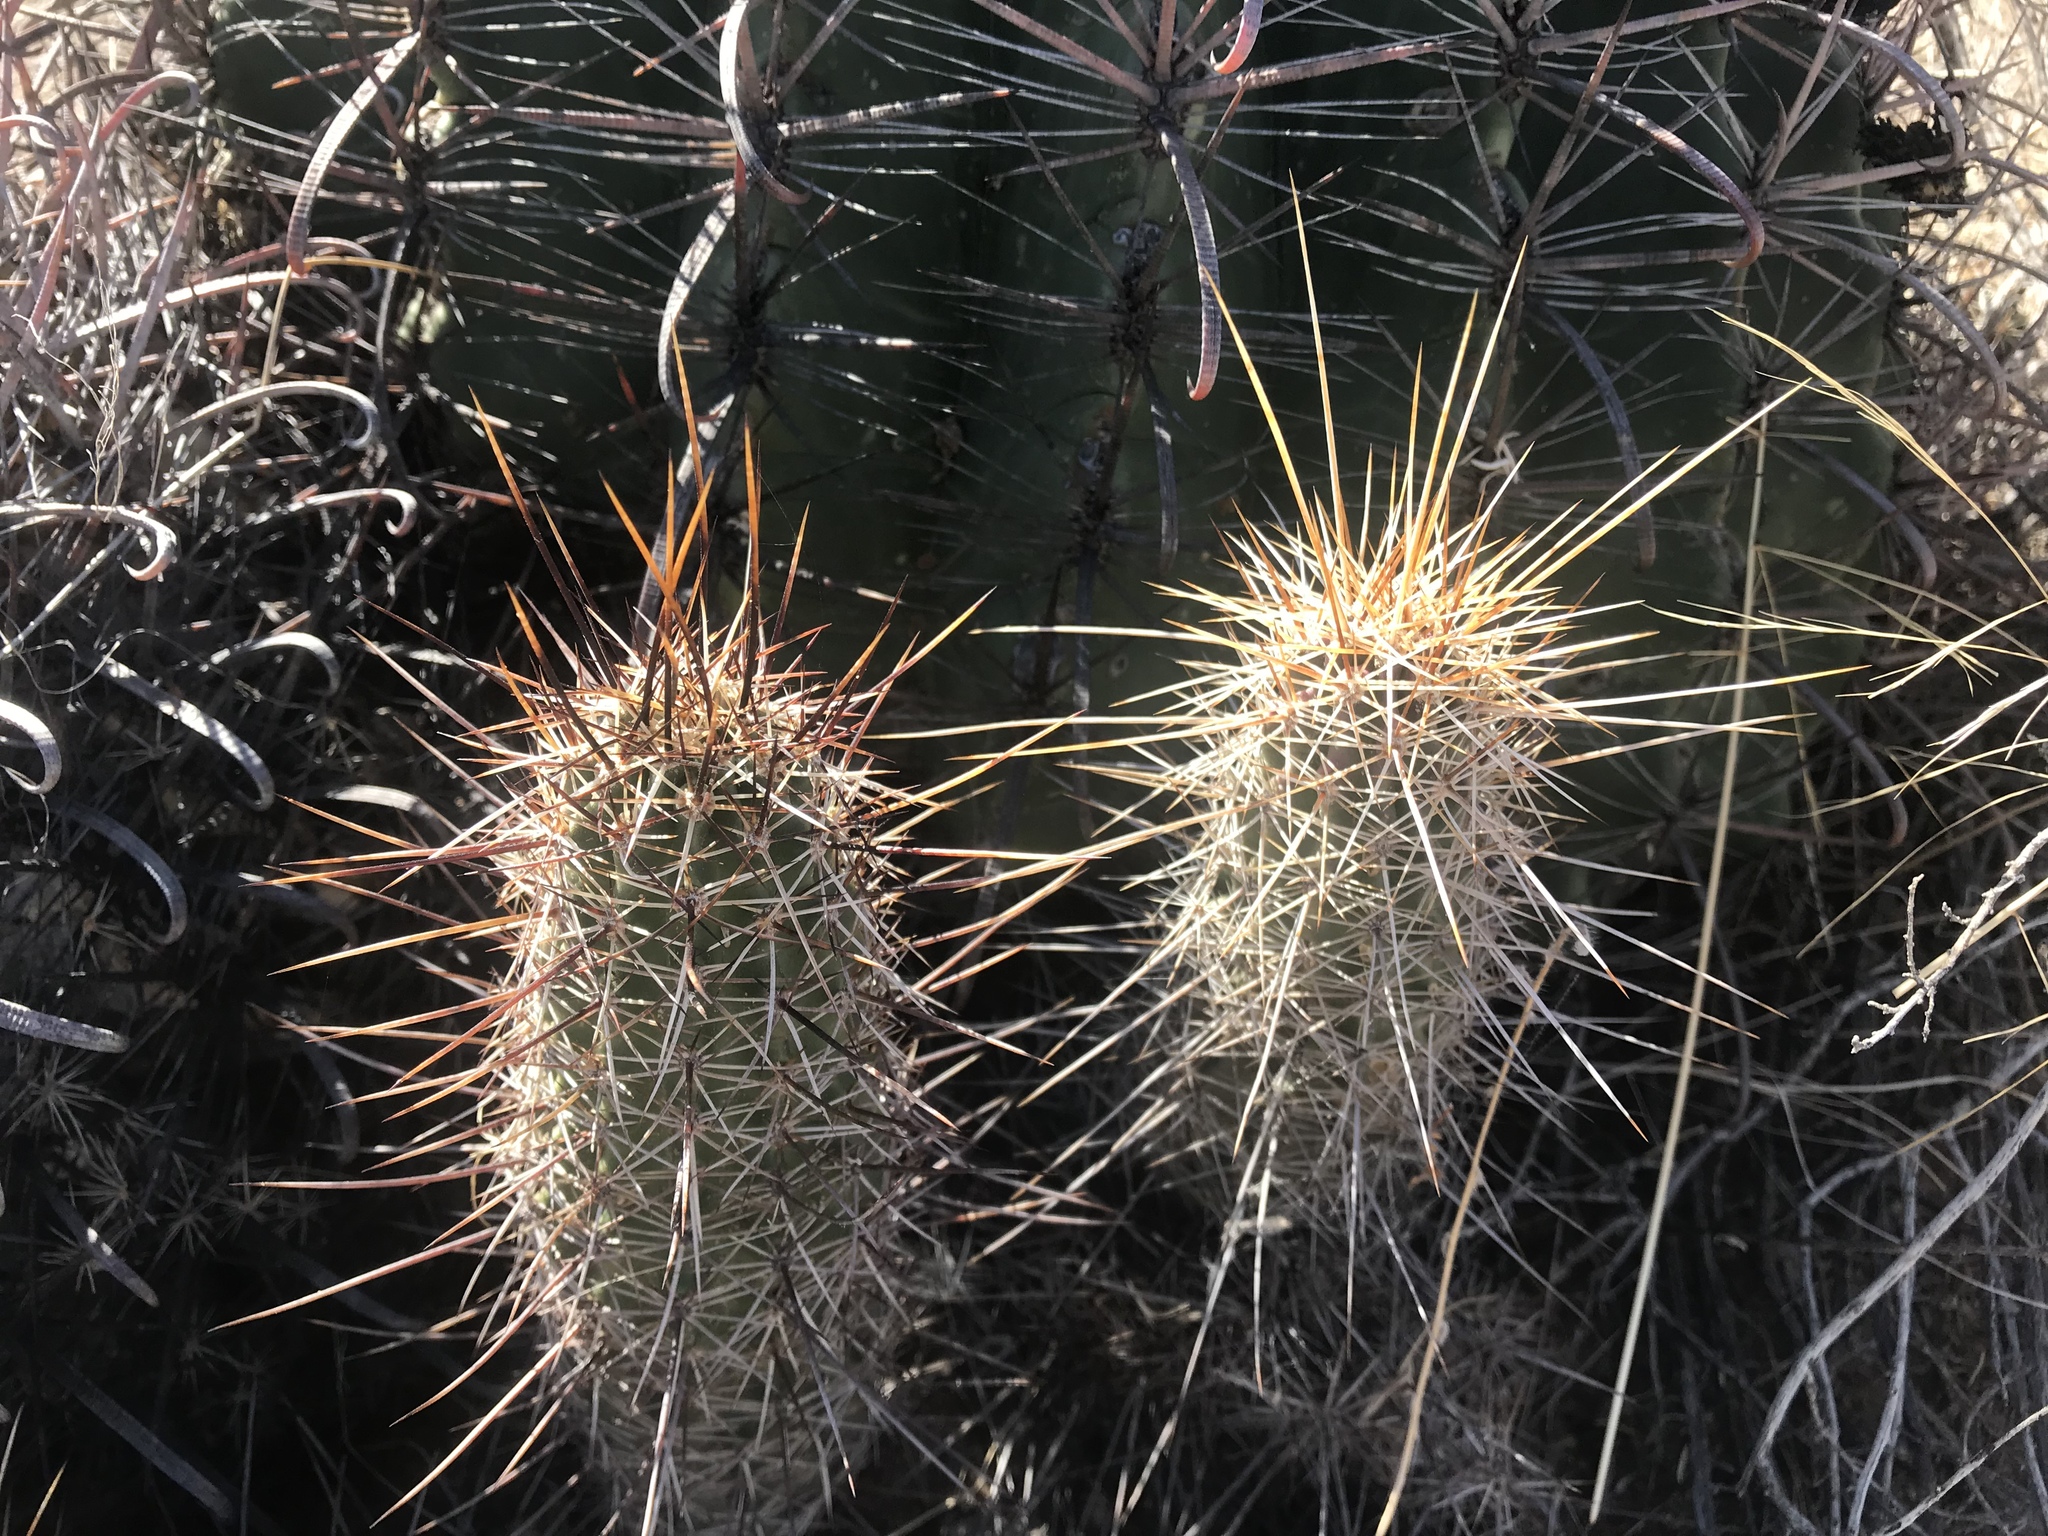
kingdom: Plantae
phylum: Tracheophyta
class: Magnoliopsida
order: Caryophyllales
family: Cactaceae
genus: Echinocereus
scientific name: Echinocereus fasciculatus
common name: Bundle hedgehog
